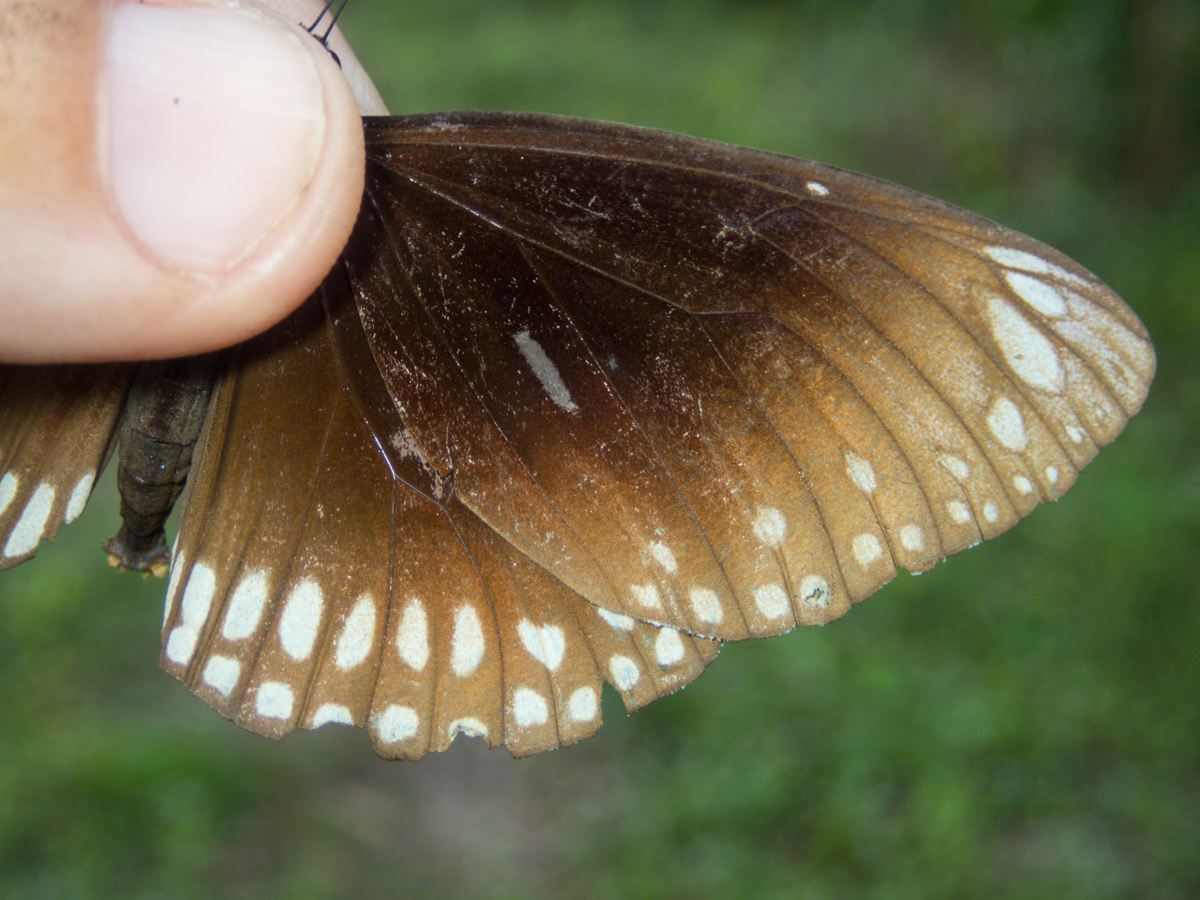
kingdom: Animalia
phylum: Arthropoda
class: Insecta
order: Lepidoptera
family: Nymphalidae
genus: Euploea
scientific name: Euploea core
